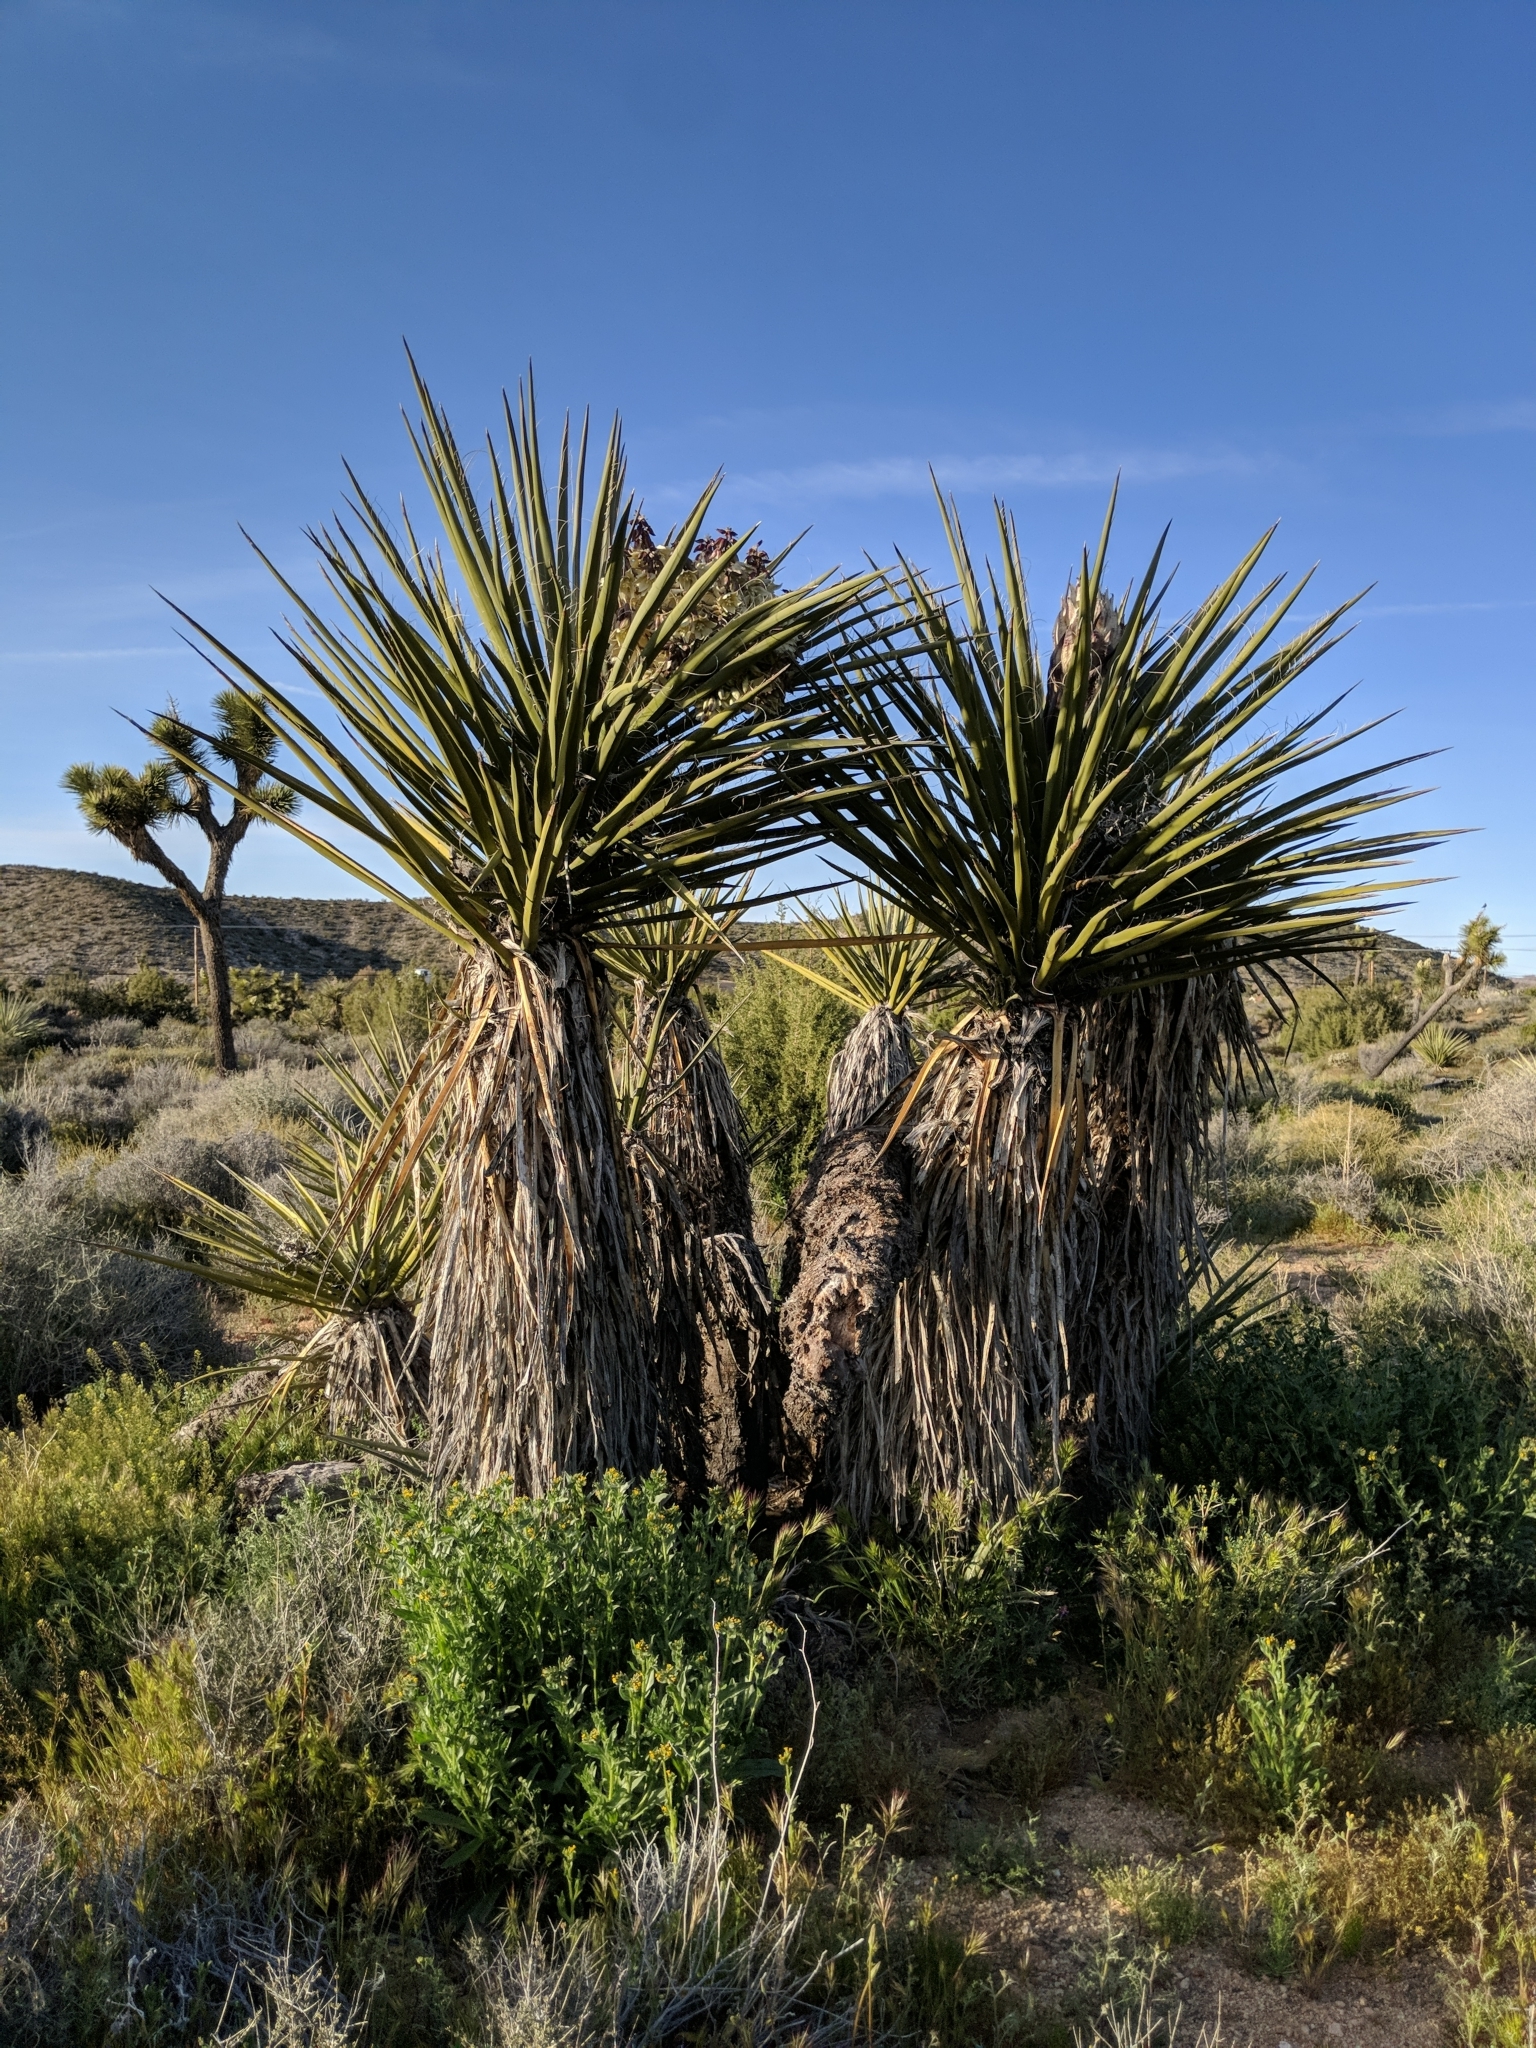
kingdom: Plantae
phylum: Tracheophyta
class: Liliopsida
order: Asparagales
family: Asparagaceae
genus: Yucca
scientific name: Yucca schidigera
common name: Mojave yucca
